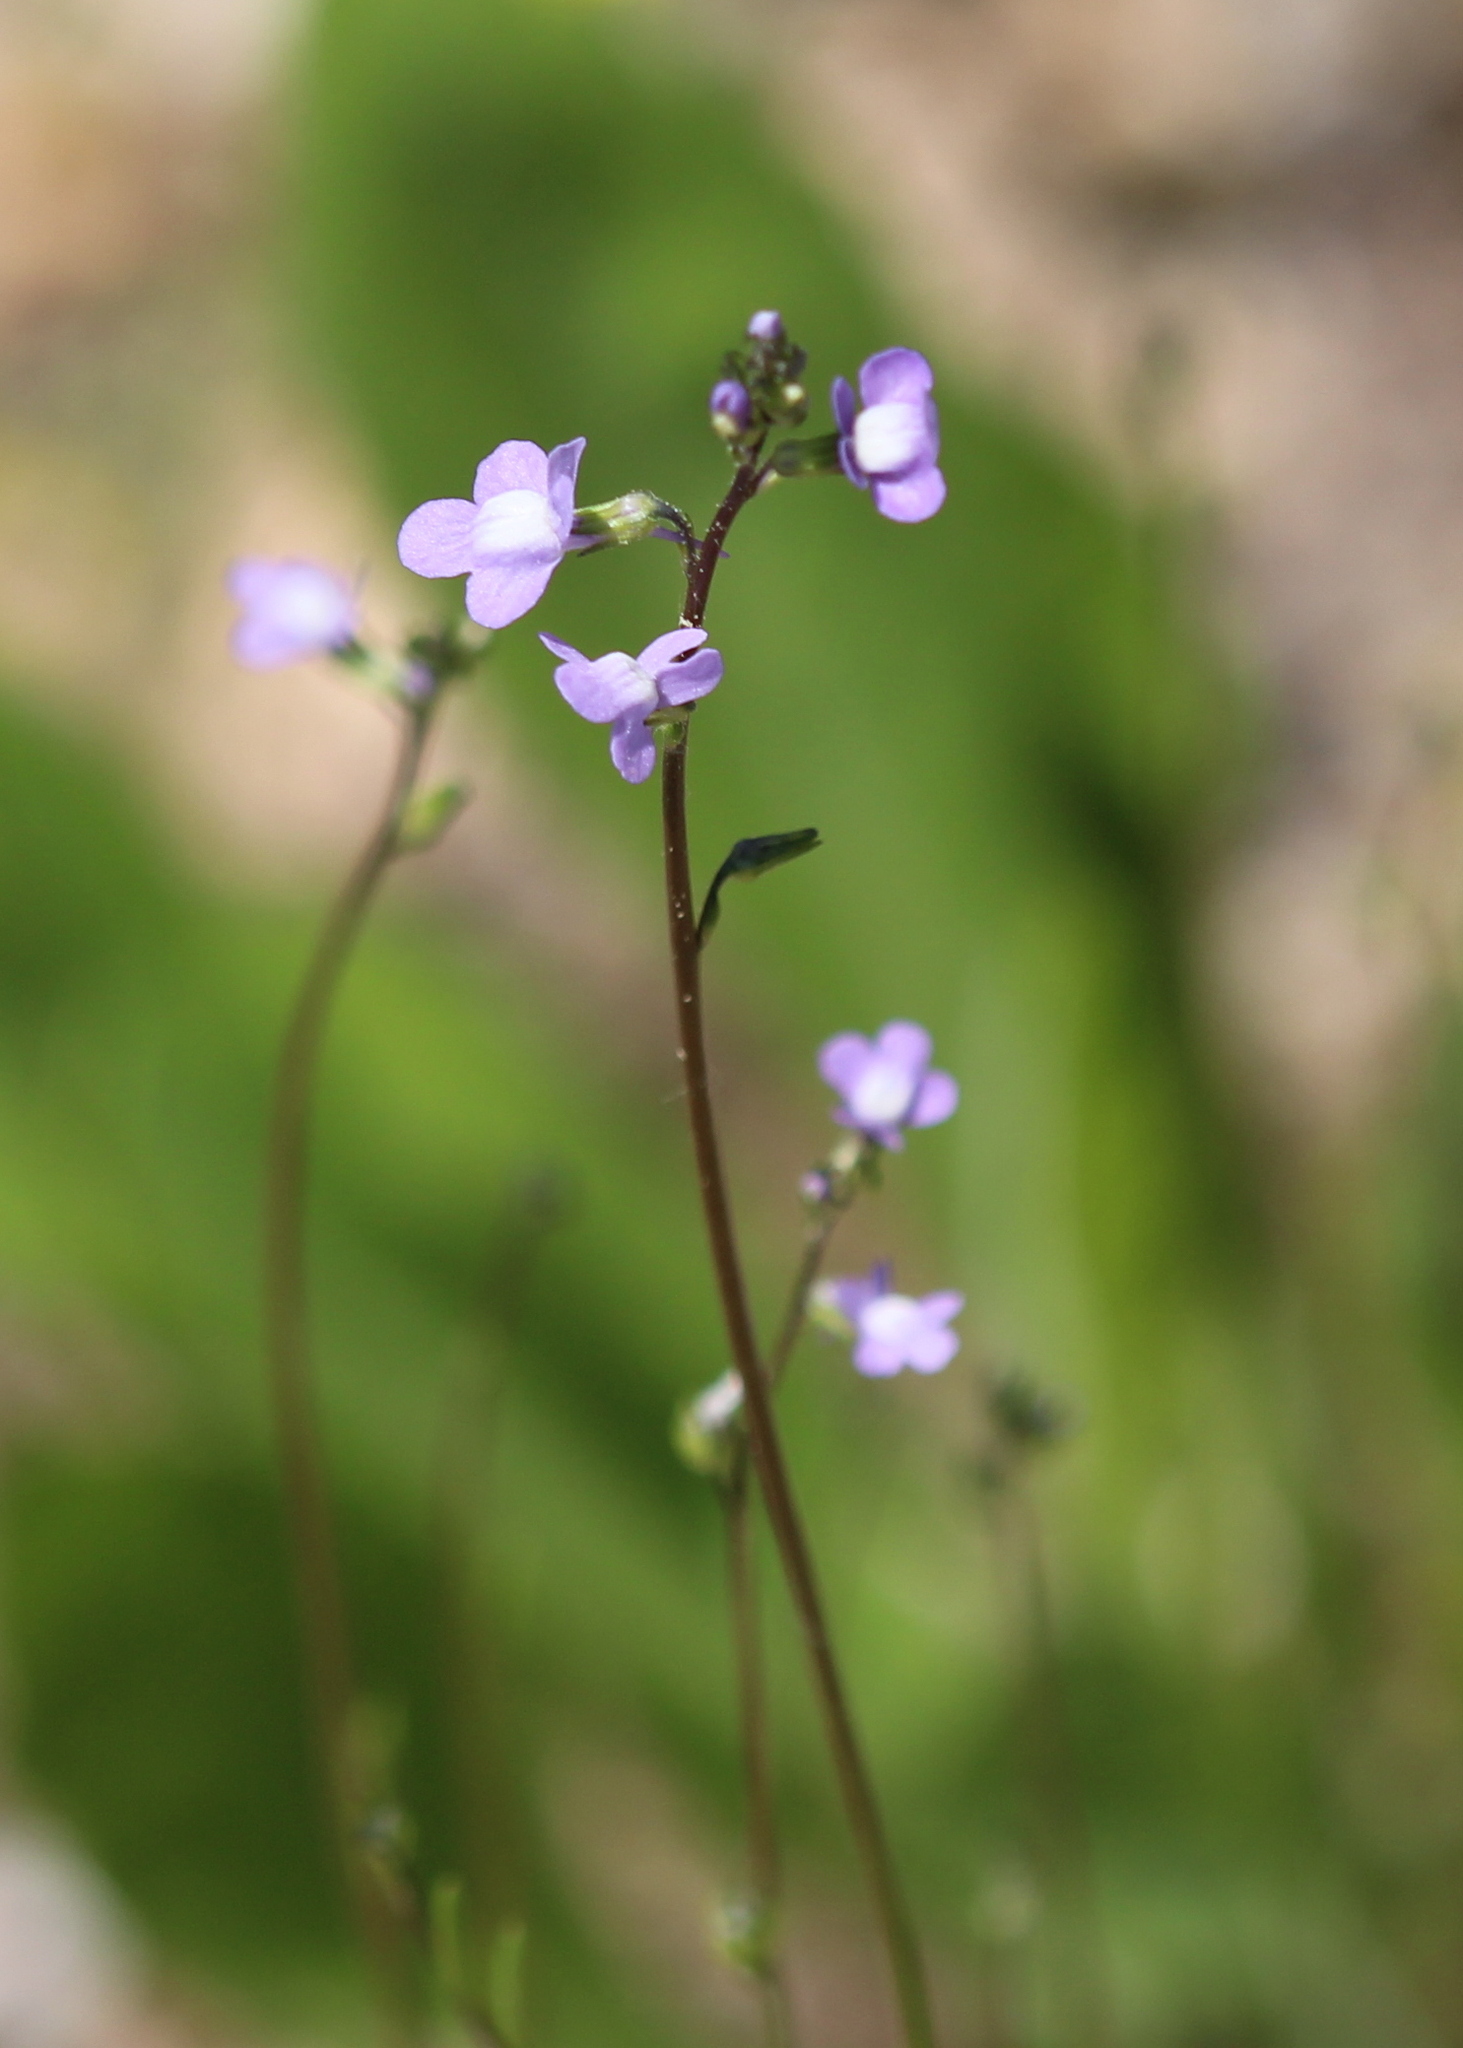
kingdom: Plantae
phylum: Tracheophyta
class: Magnoliopsida
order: Lamiales
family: Plantaginaceae
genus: Nuttallanthus
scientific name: Nuttallanthus canadensis
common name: Blue toadflax
